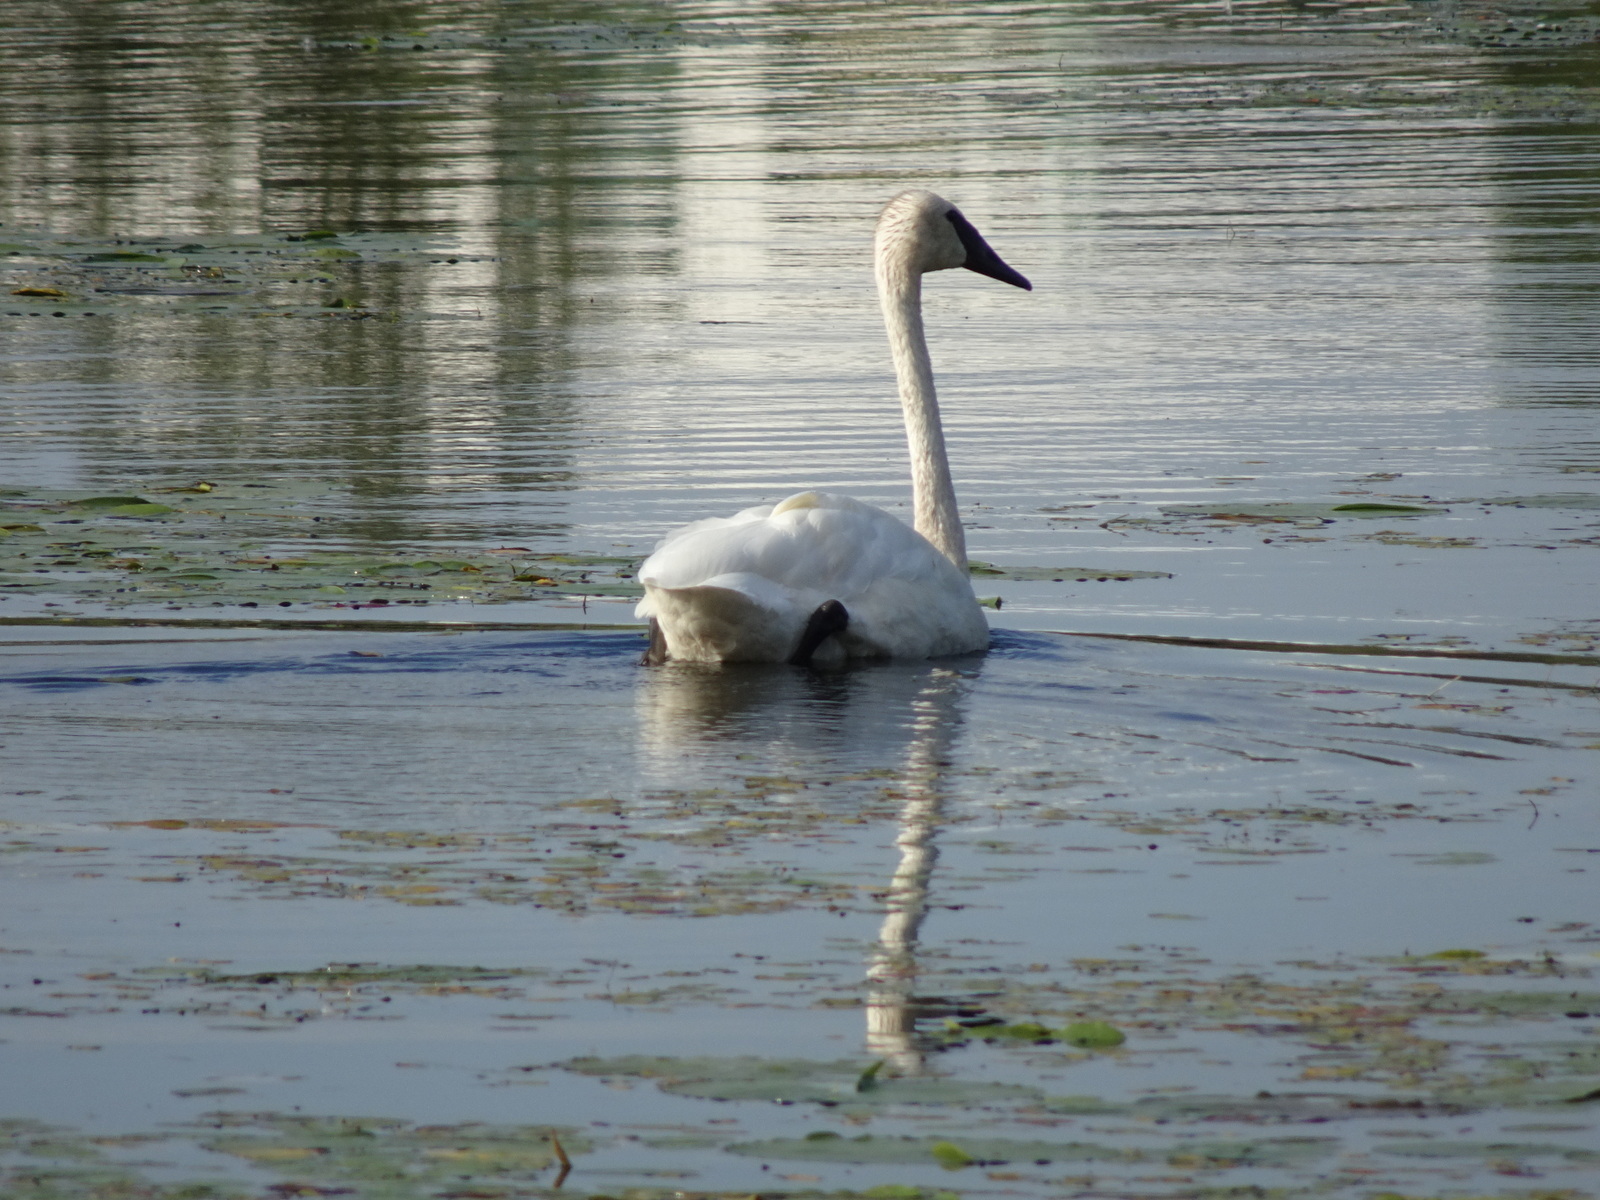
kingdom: Animalia
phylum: Chordata
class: Aves
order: Anseriformes
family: Anatidae
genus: Cygnus
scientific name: Cygnus buccinator
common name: Trumpeter swan
